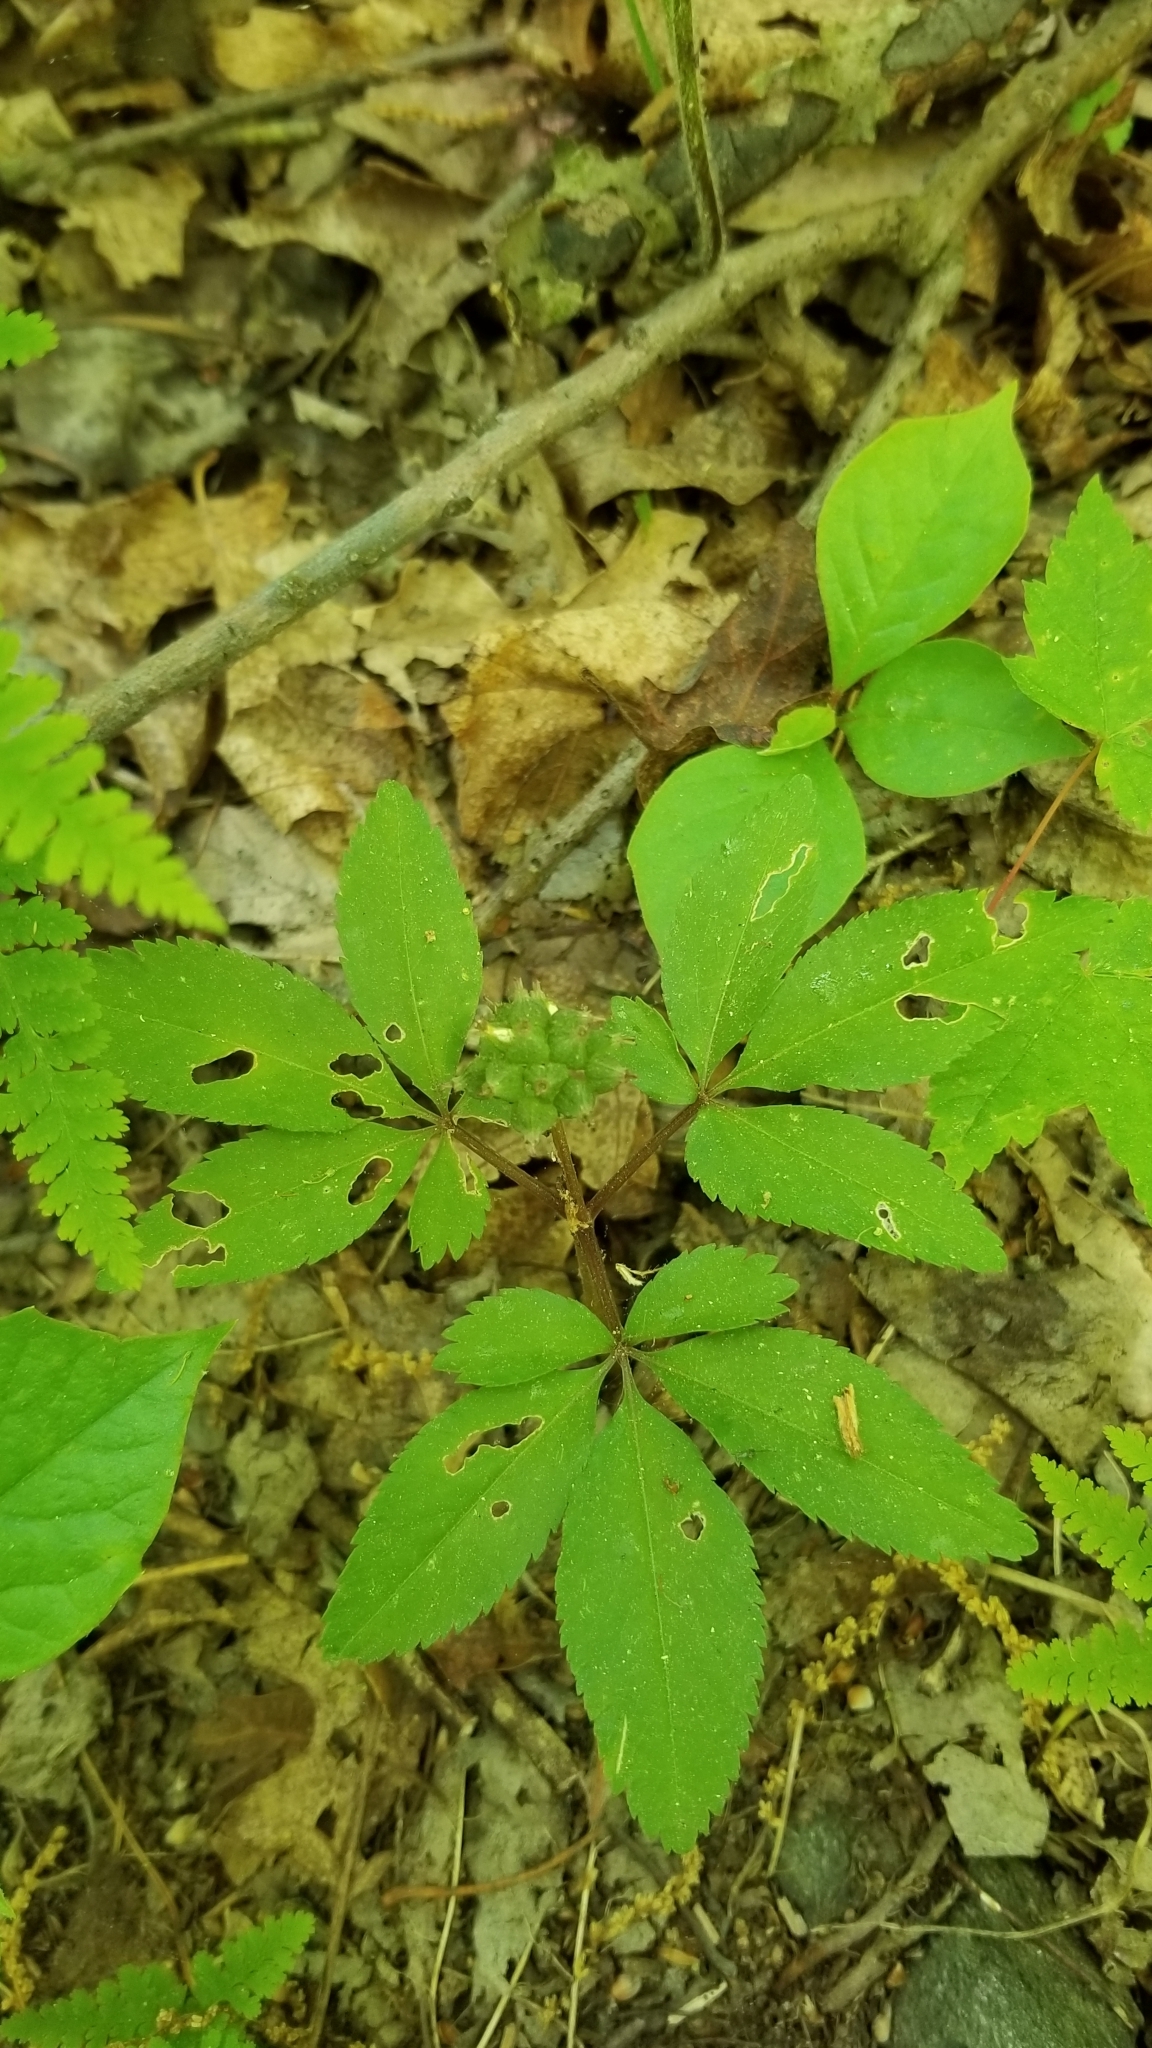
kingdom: Plantae
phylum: Tracheophyta
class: Magnoliopsida
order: Apiales
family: Araliaceae
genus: Panax
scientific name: Panax trifolius
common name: Dwarf ginseng
